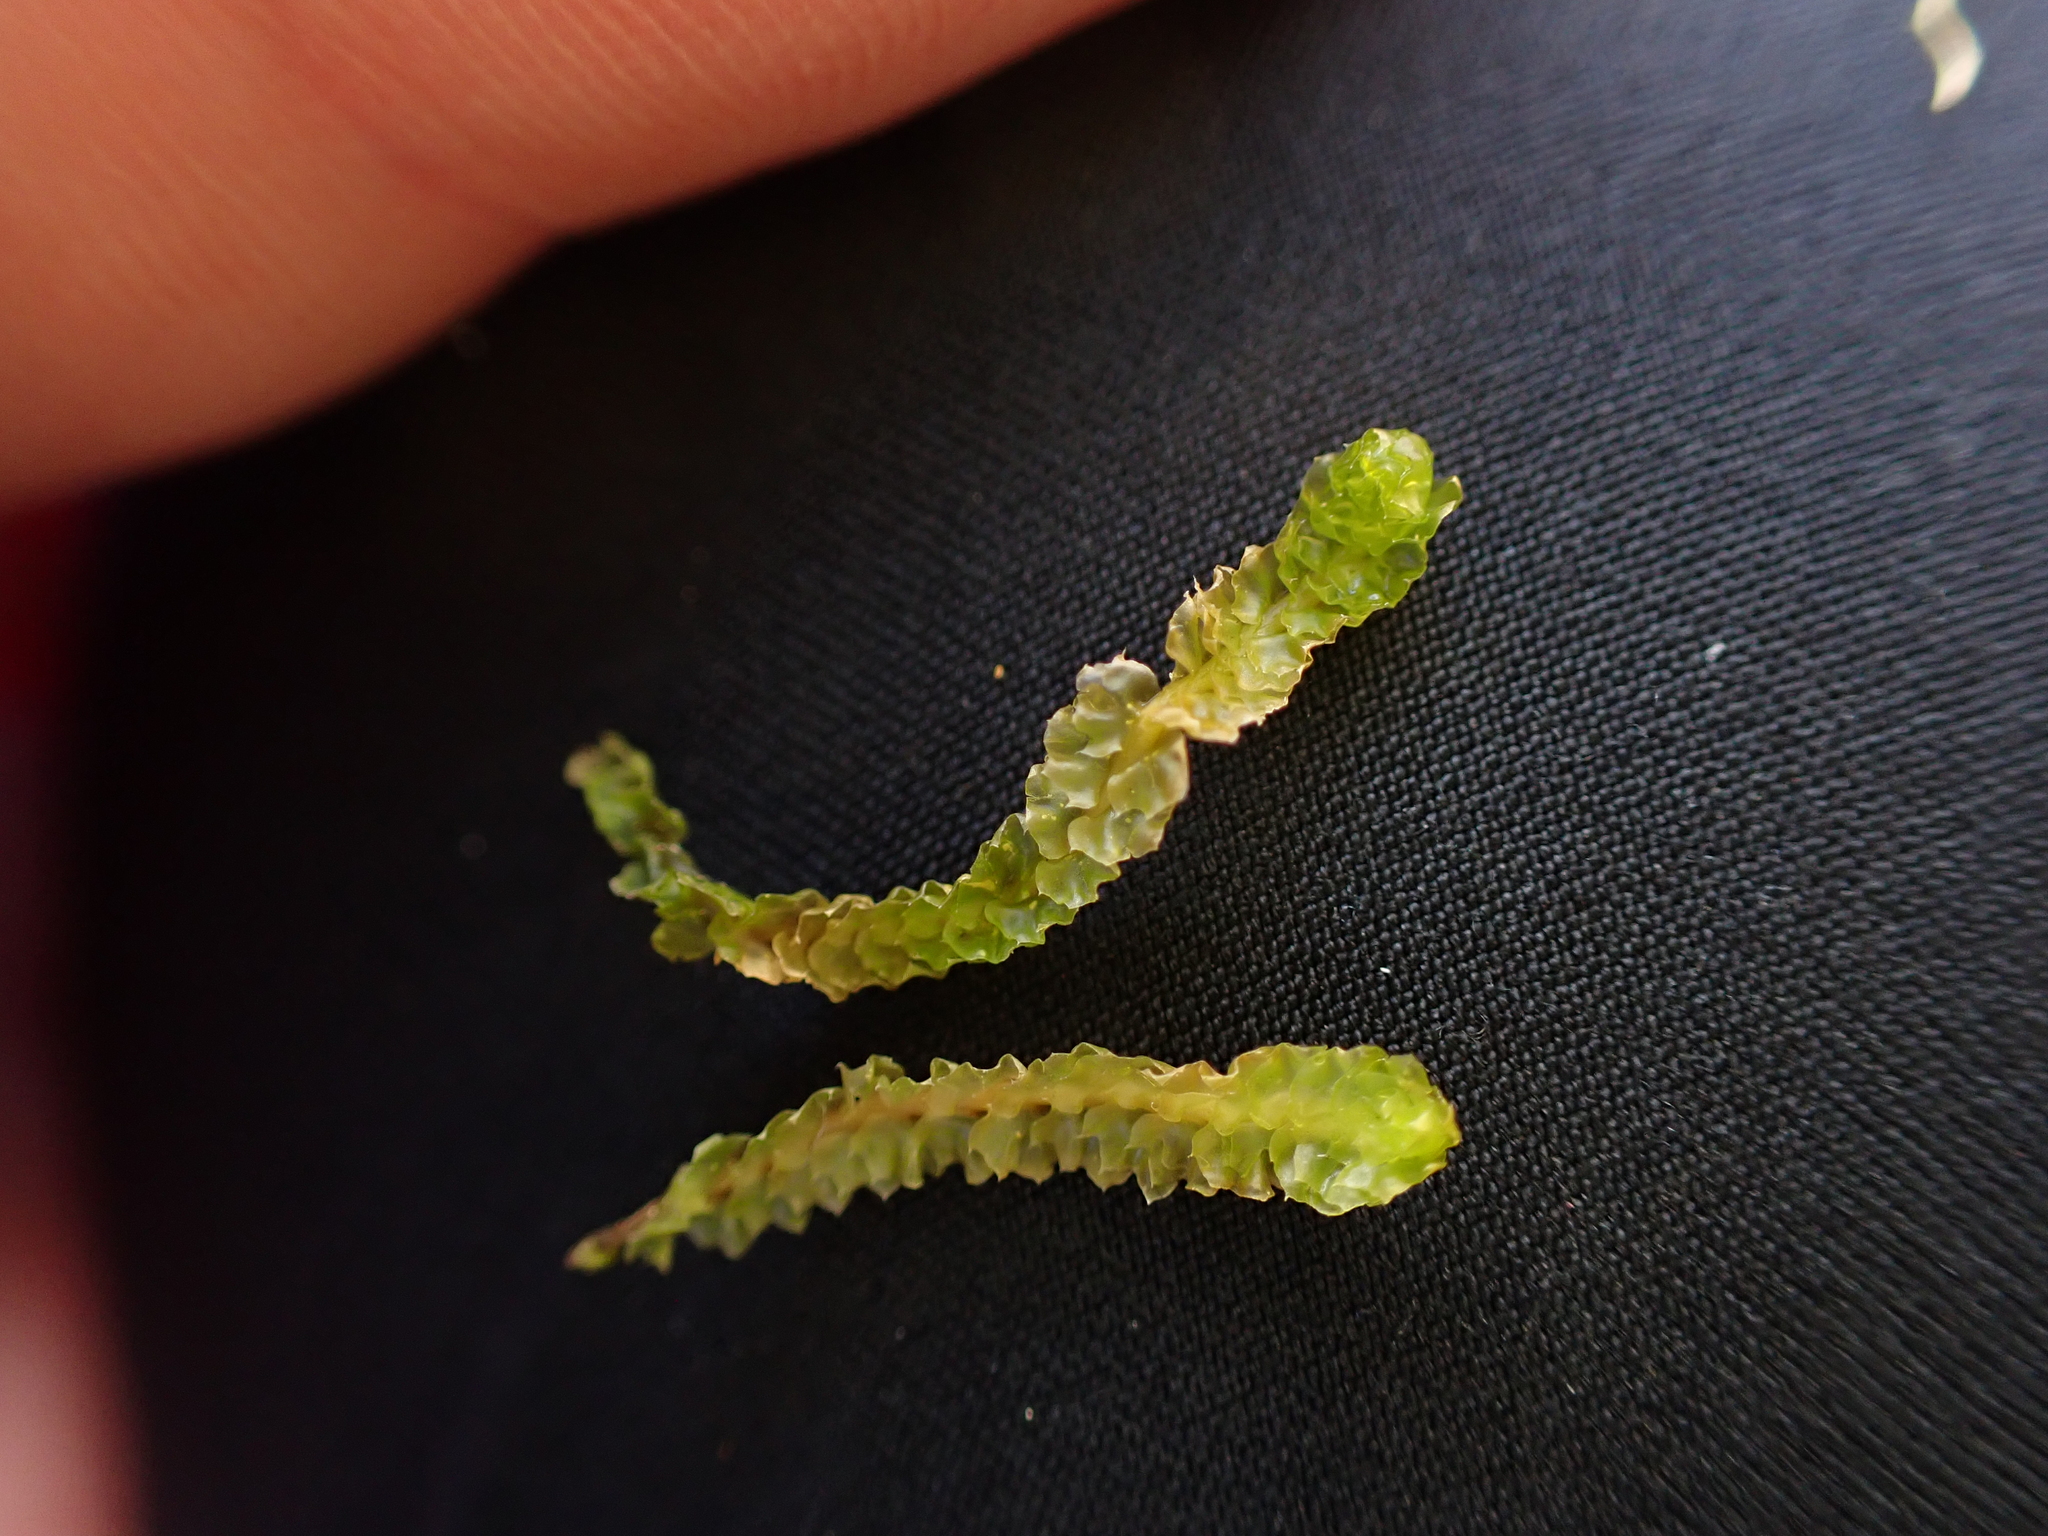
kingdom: Plantae
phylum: Marchantiophyta
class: Jungermanniopsida
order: Jungermanniales
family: Anastrophyllaceae
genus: Barbilophozia
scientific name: Barbilophozia lycopodioides
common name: Greater pawwort
